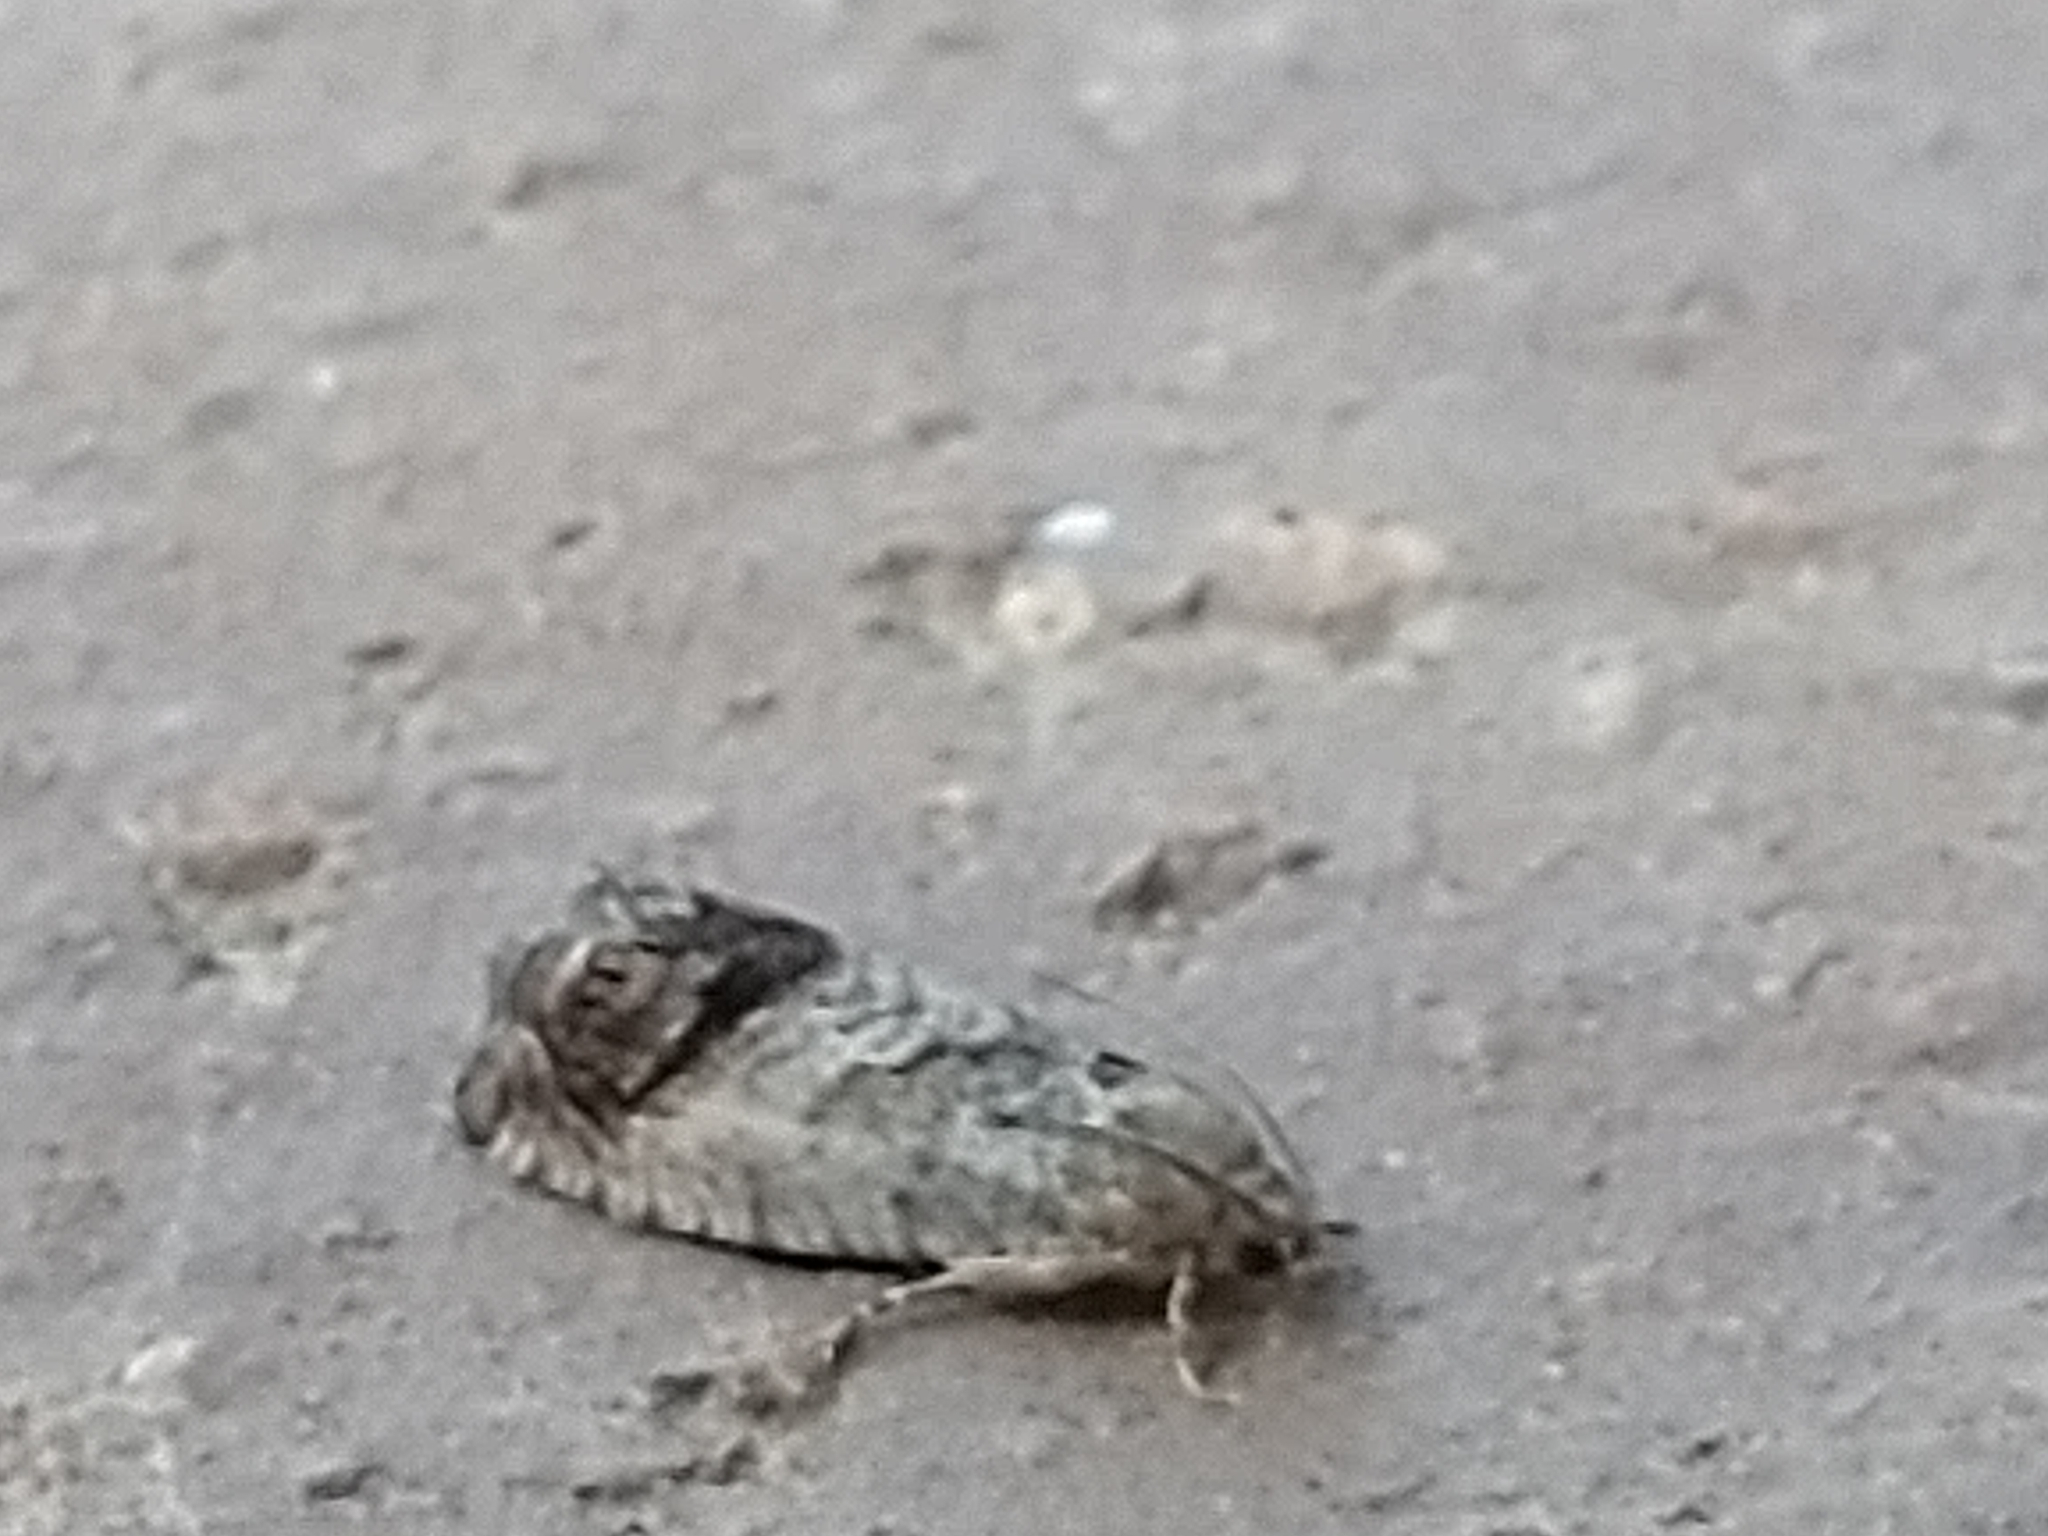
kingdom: Animalia
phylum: Arthropoda
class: Insecta
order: Lepidoptera
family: Tortricidae
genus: Cydia
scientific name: Cydia splendana
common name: De: kastanienwickler, eichenwickler es: oruga de la castaña fr: carpocapse des châtaignes it: cidia o tortrice tardiva delle castagne pt: bichado das castanhas gb: acorn moth, chestnut fruit tortrix
